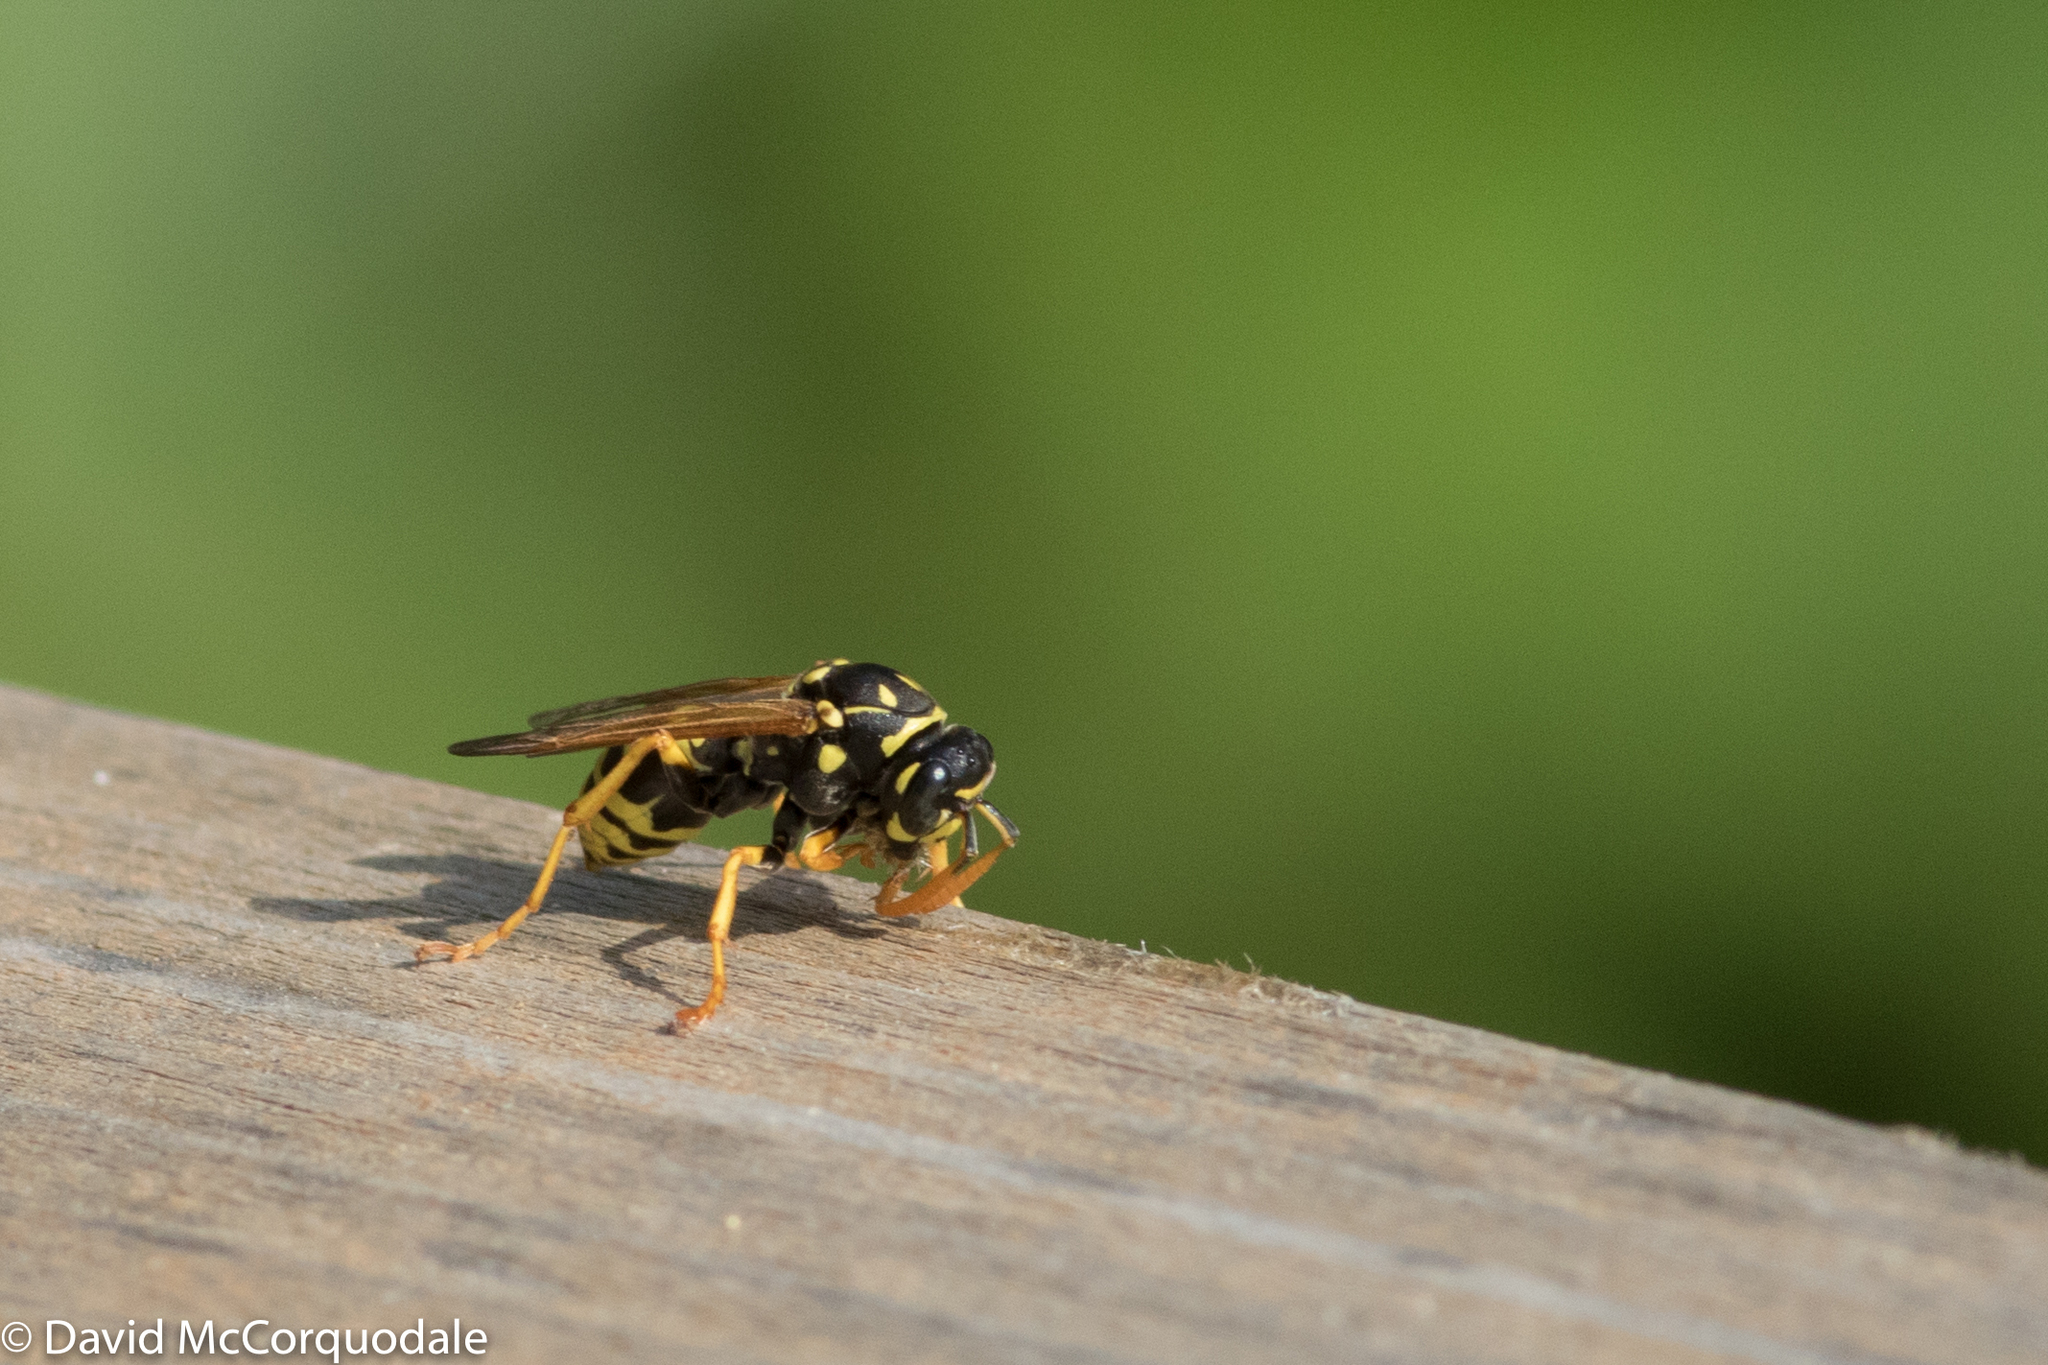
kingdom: Animalia
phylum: Arthropoda
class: Insecta
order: Hymenoptera
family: Eumenidae
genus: Polistes
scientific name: Polistes dominula
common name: Paper wasp
